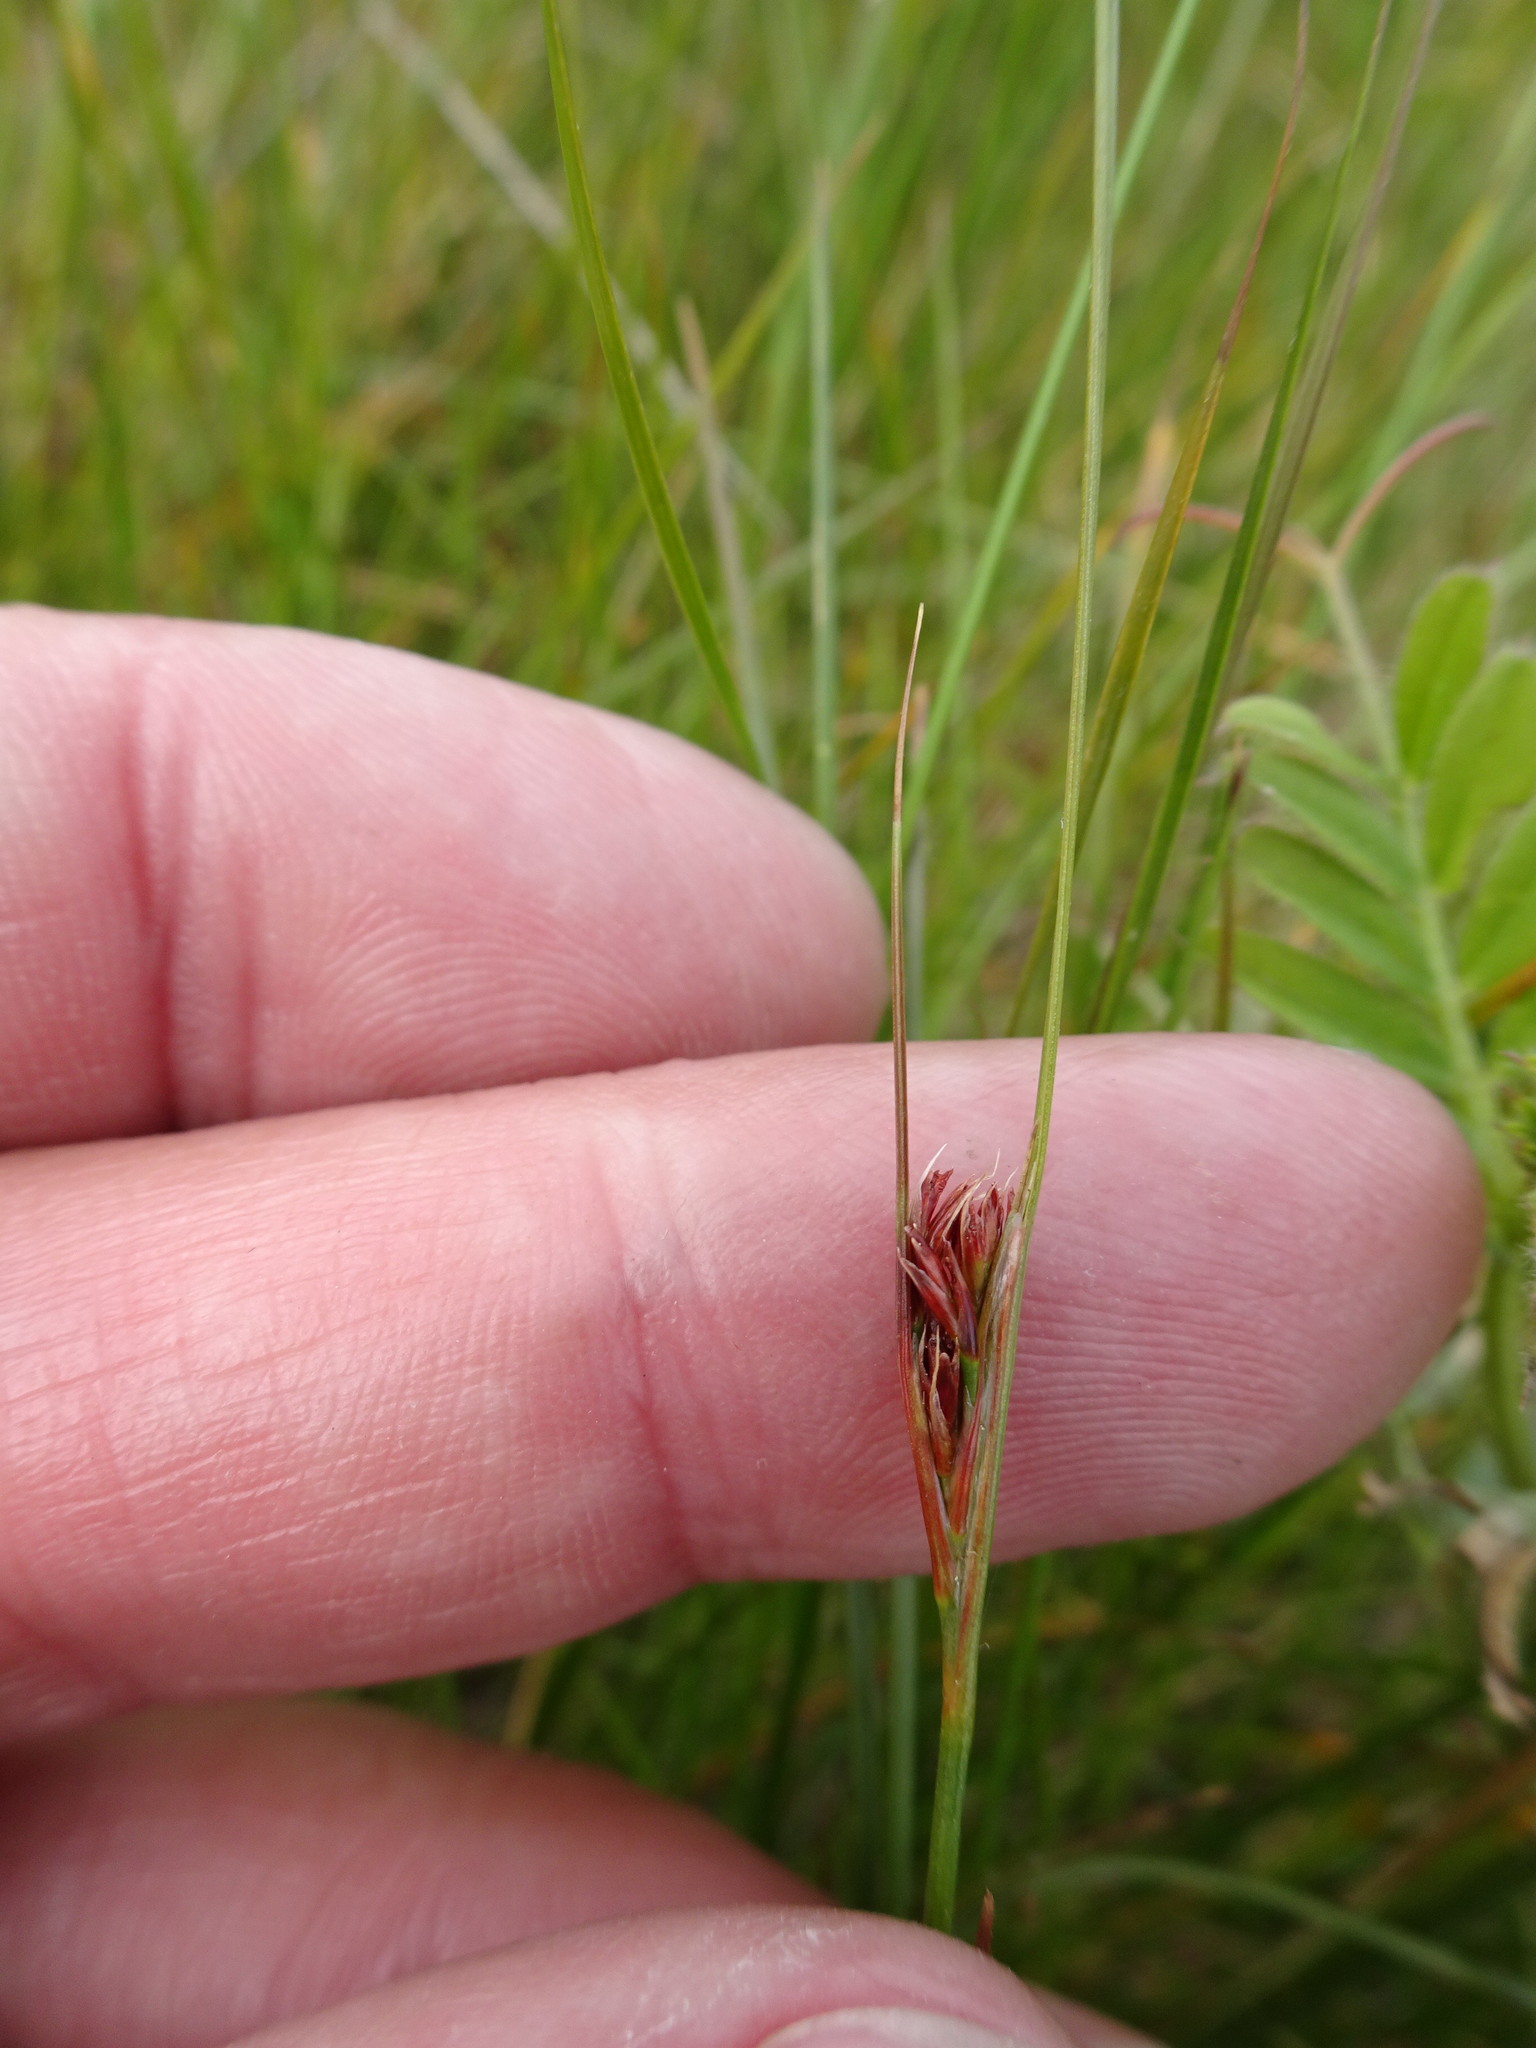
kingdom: Plantae
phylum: Tracheophyta
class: Liliopsida
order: Poales
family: Juncaceae
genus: Juncus
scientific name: Juncus gerardi
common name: Saltmarsh rush
